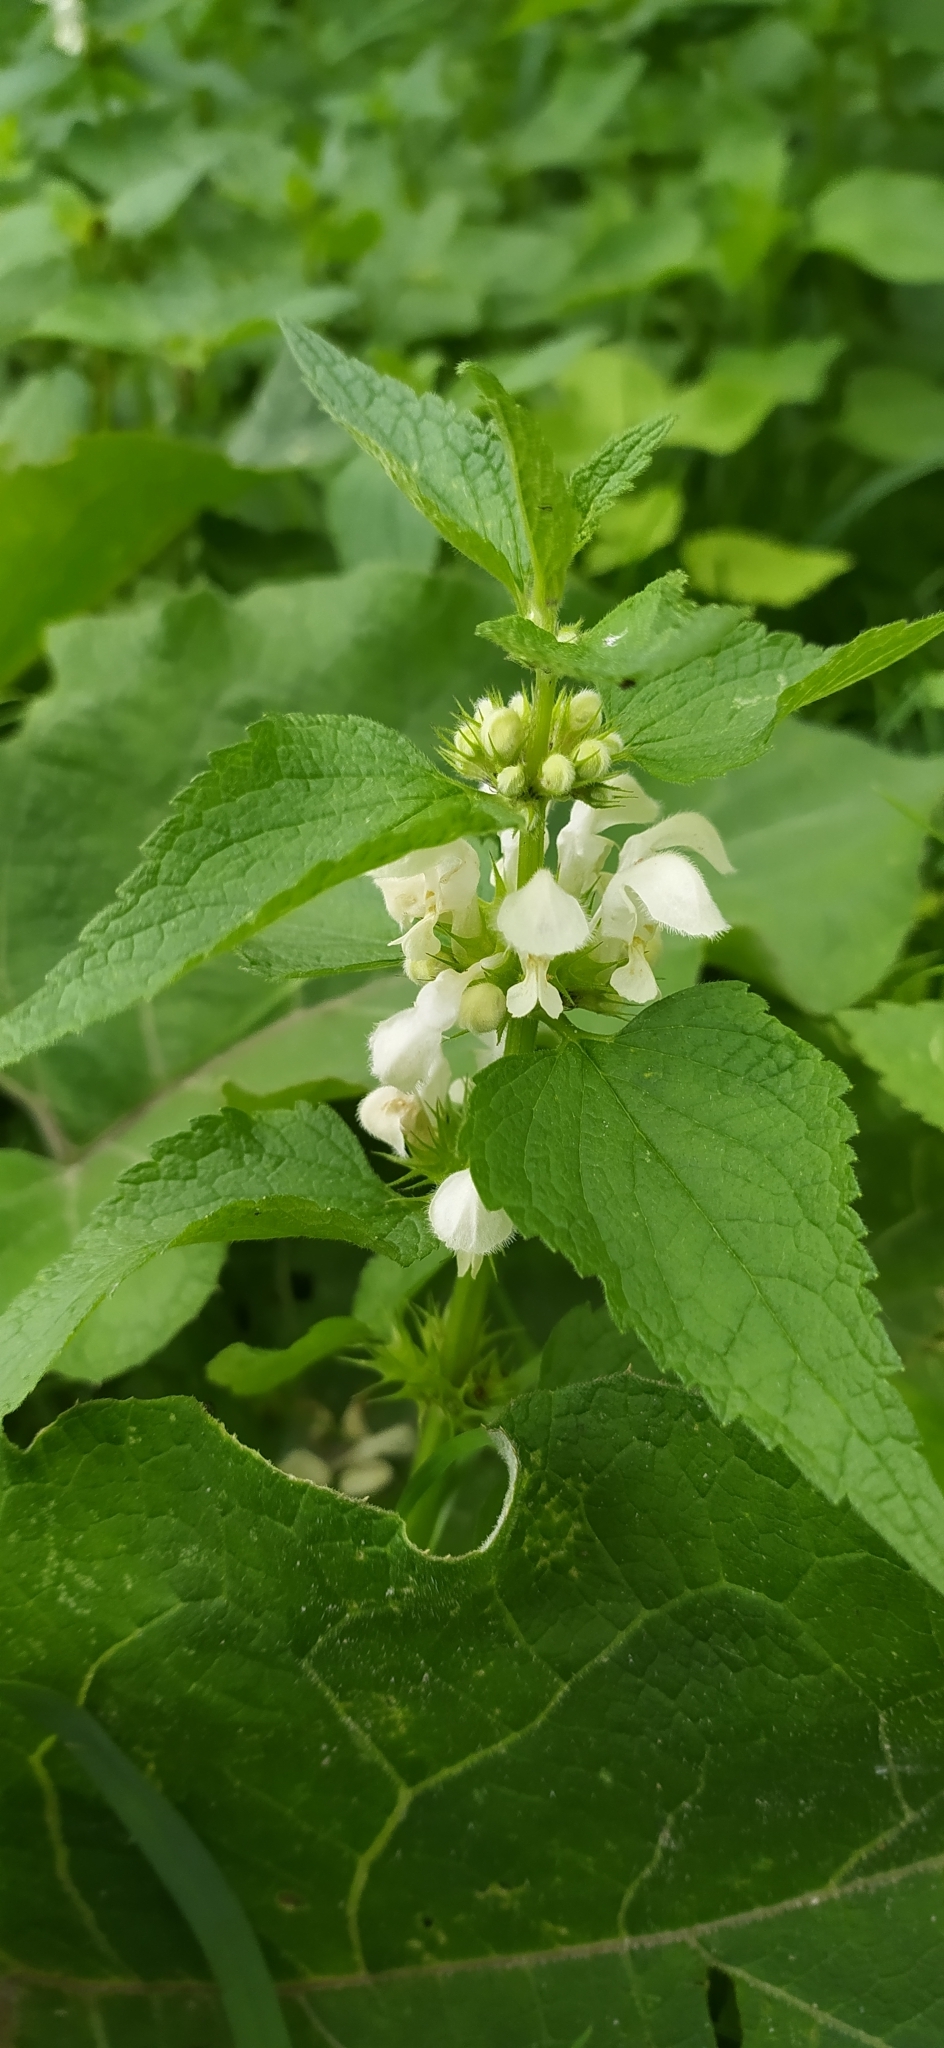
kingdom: Plantae
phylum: Tracheophyta
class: Magnoliopsida
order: Lamiales
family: Lamiaceae
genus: Lamium
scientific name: Lamium album
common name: White dead-nettle
